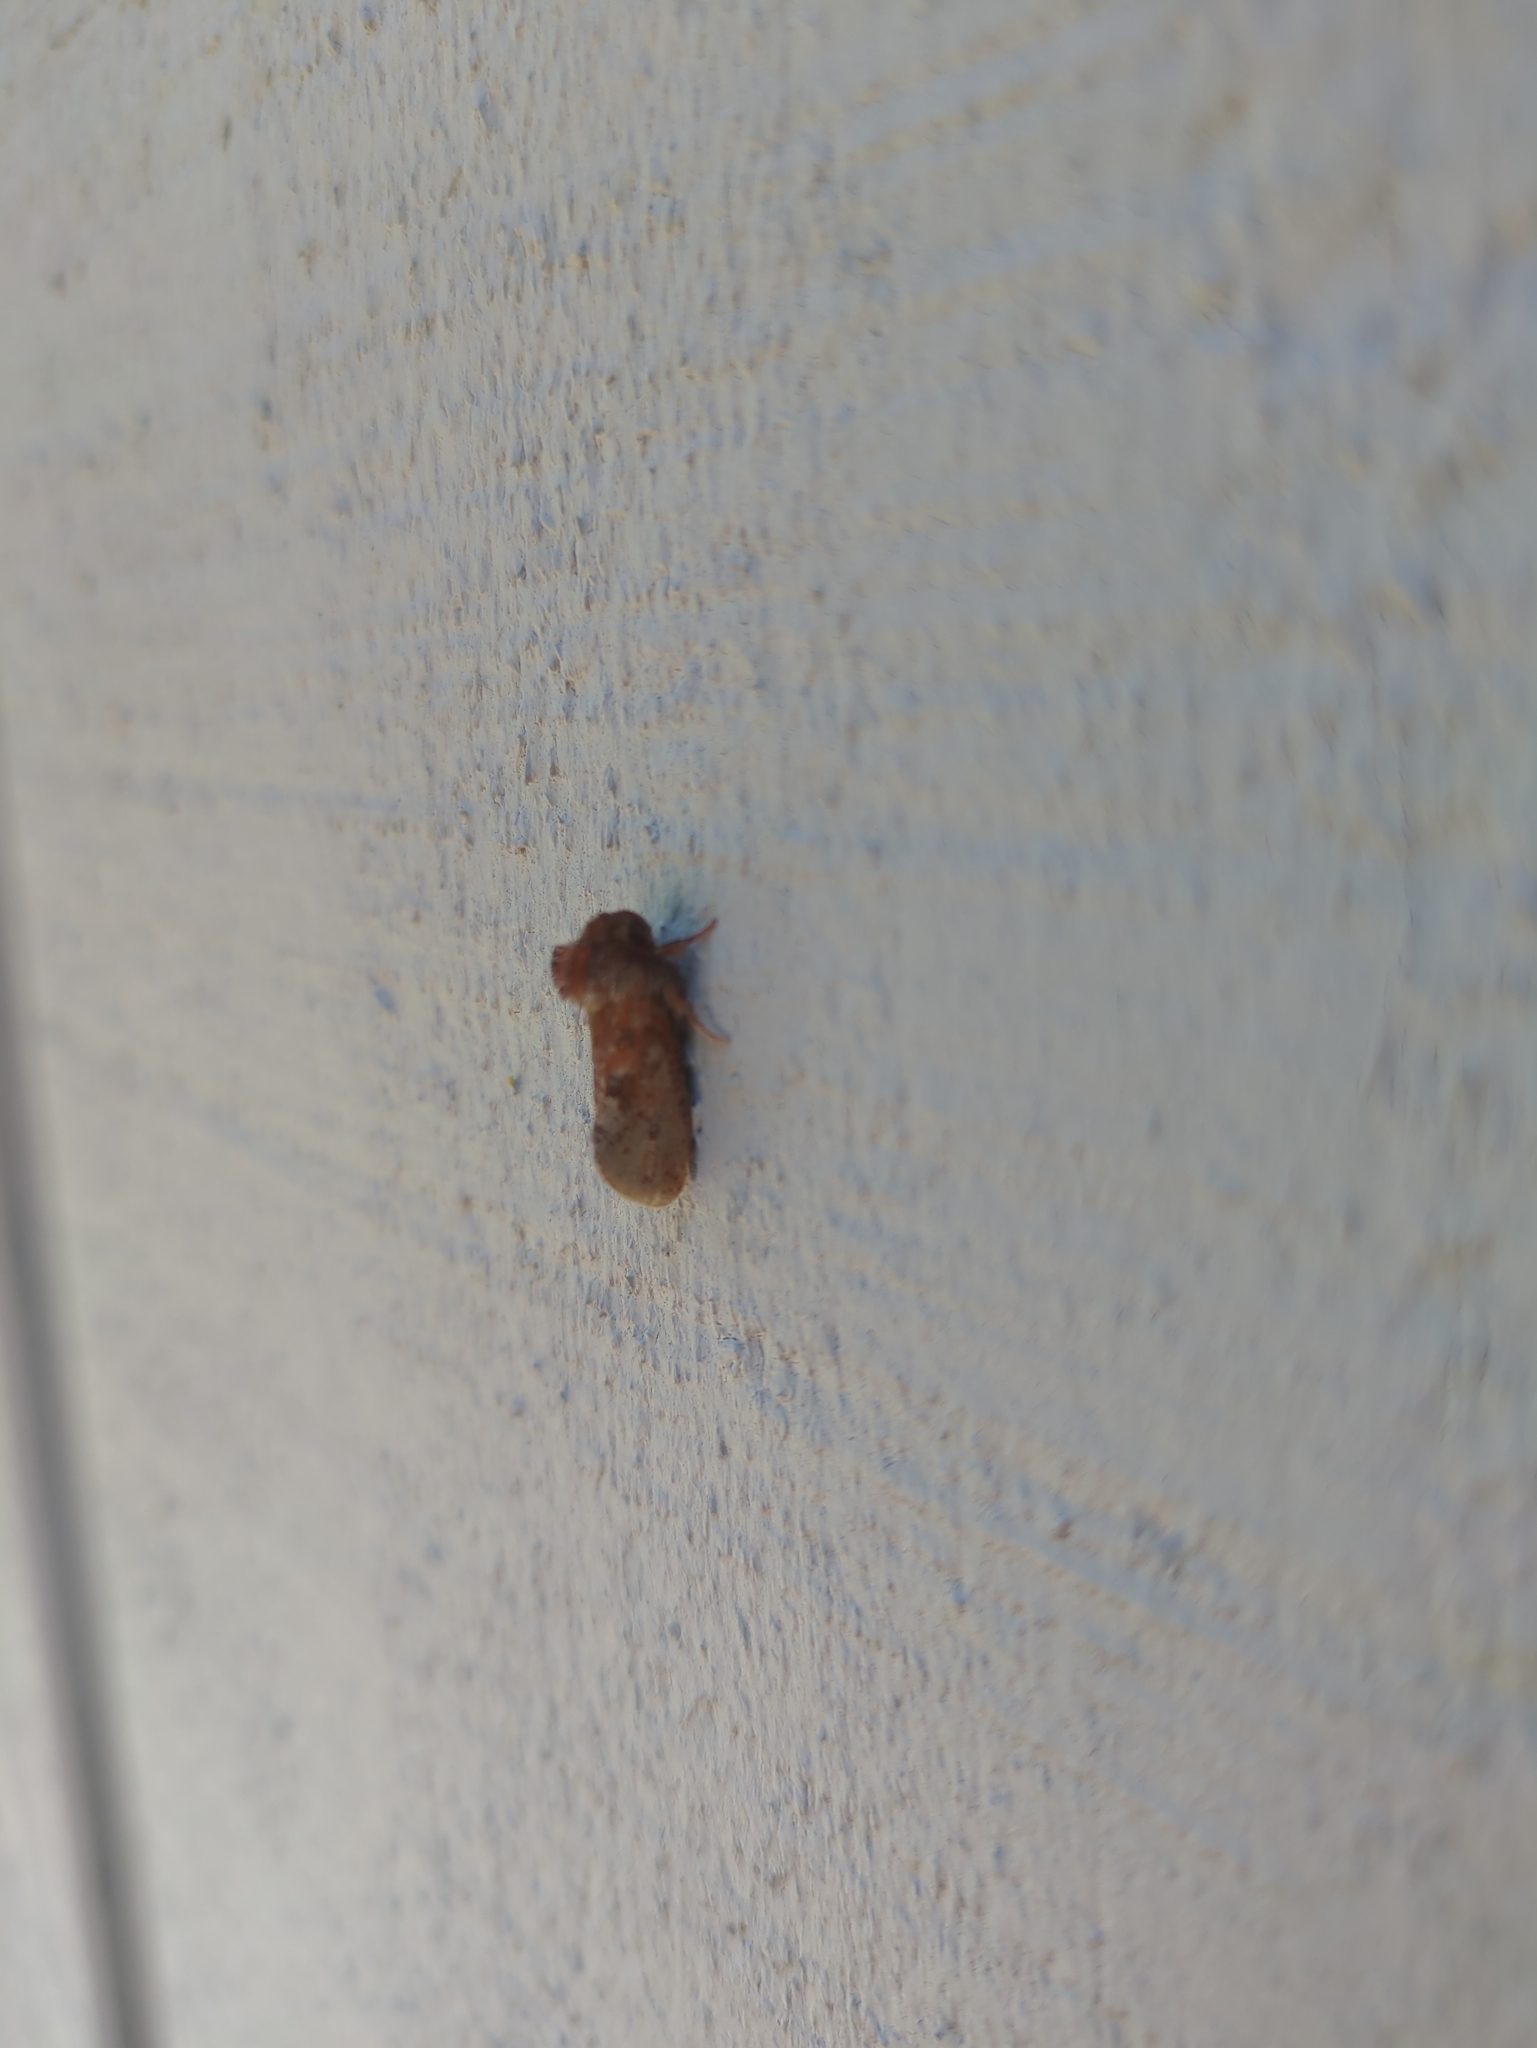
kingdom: Animalia
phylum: Arthropoda
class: Insecta
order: Lepidoptera
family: Tineidae
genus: Acrolophus
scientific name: Acrolophus plumifrontella
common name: Eastern grass tubeworm moth
